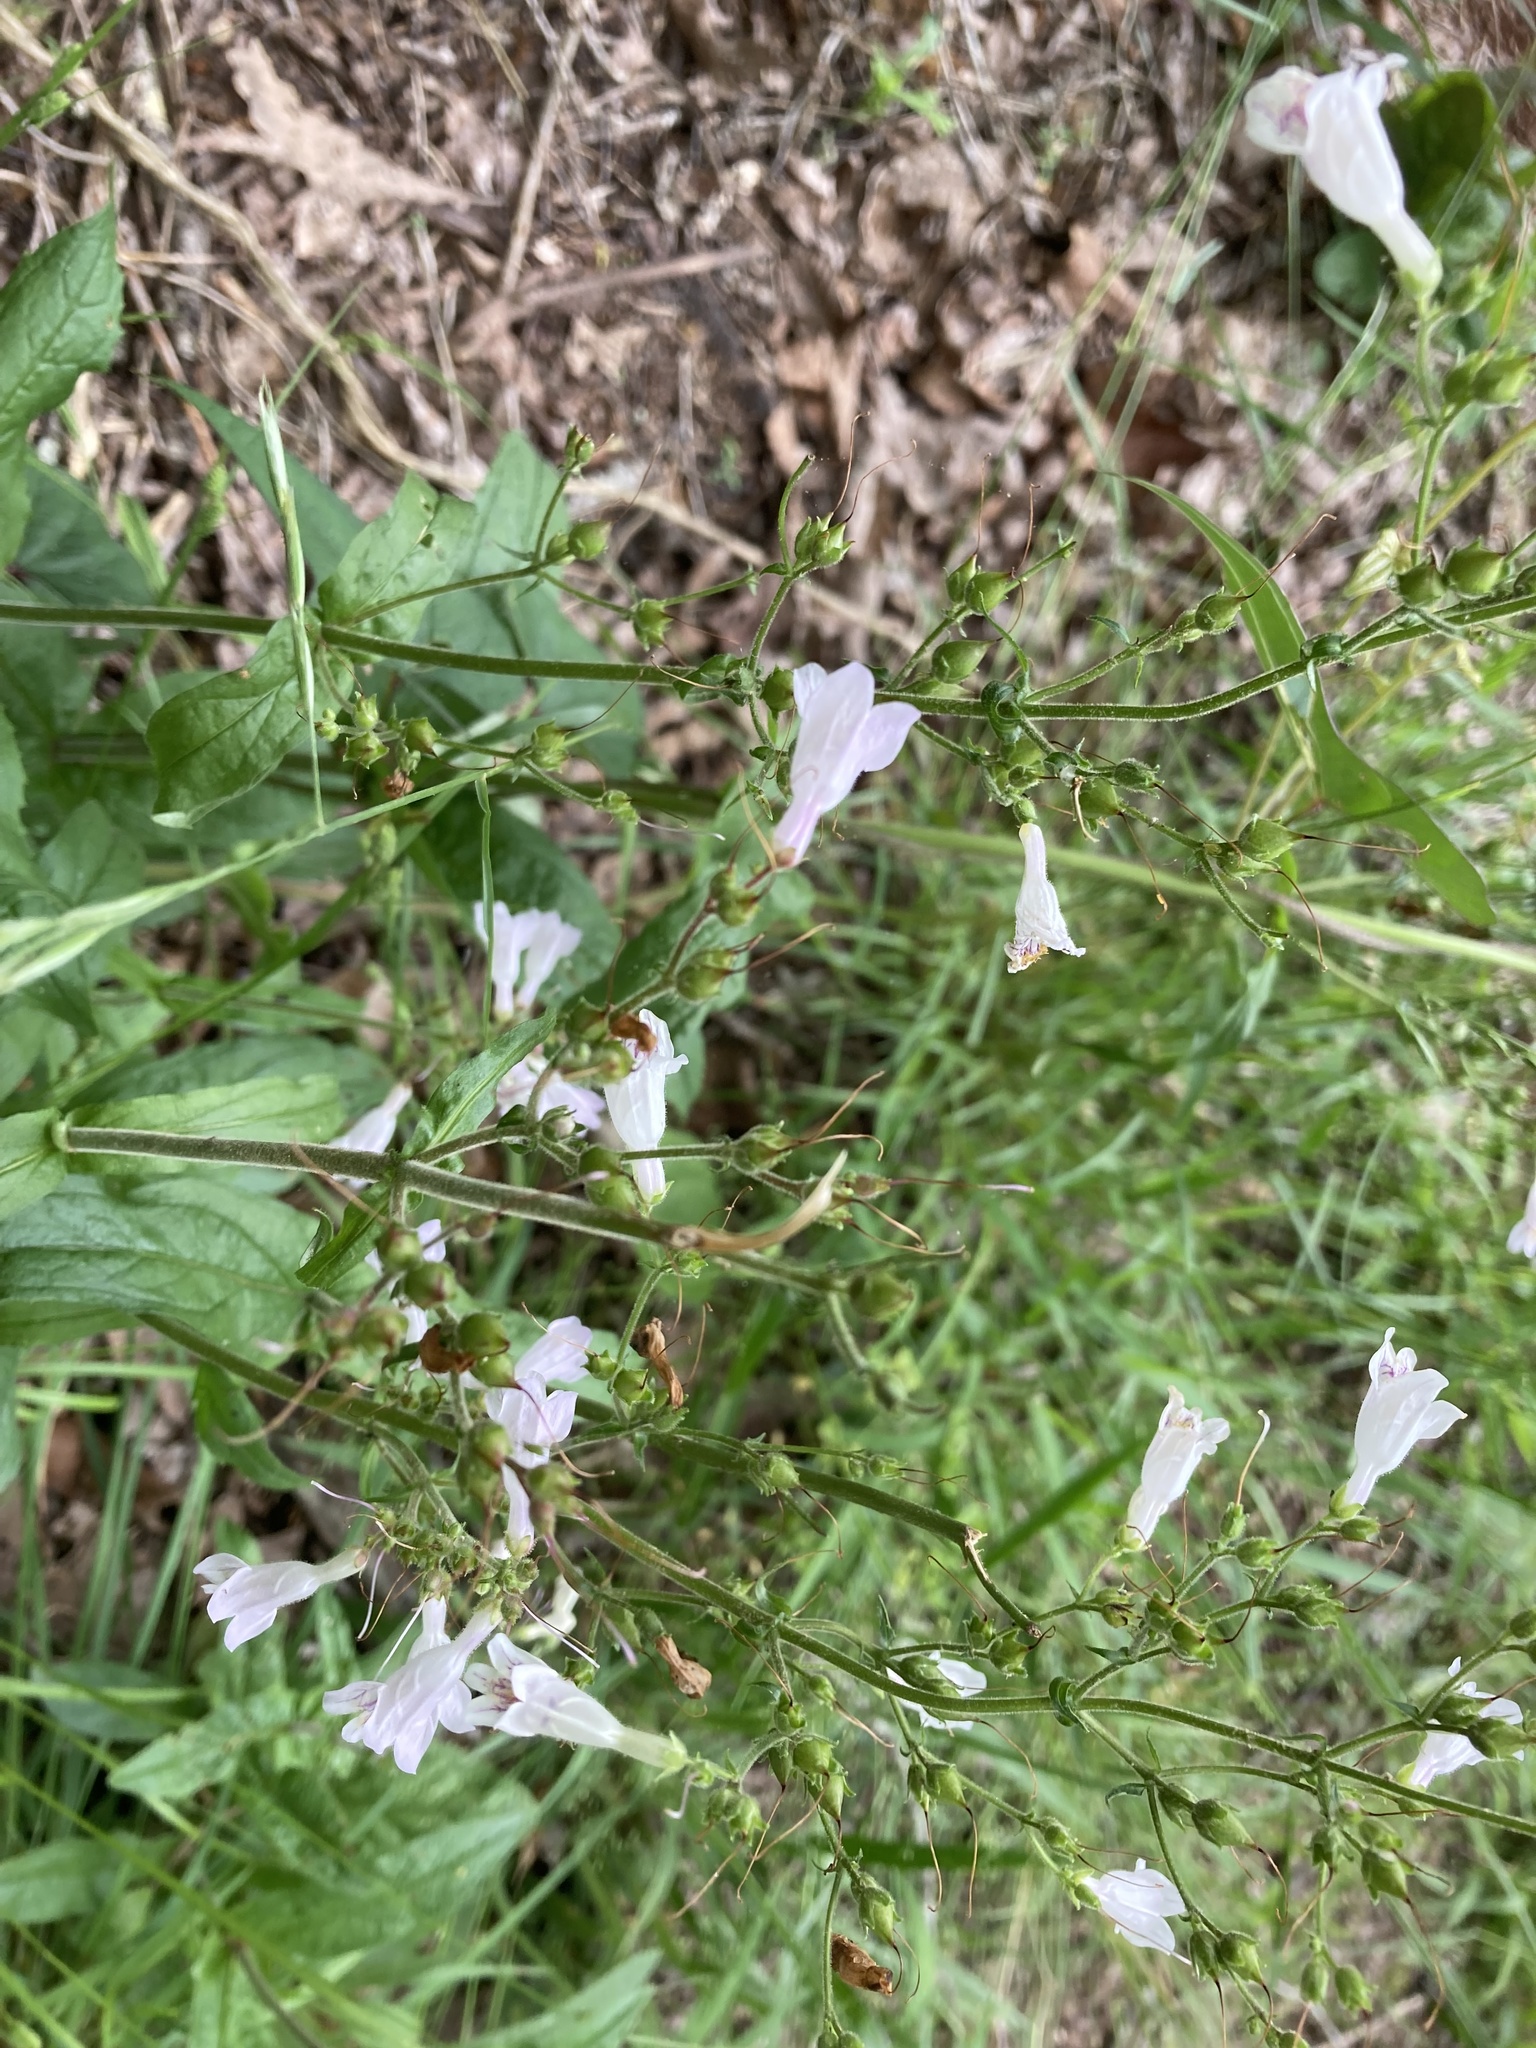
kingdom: Plantae
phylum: Tracheophyta
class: Magnoliopsida
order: Lamiales
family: Plantaginaceae
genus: Penstemon
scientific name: Penstemon brevisepalus
